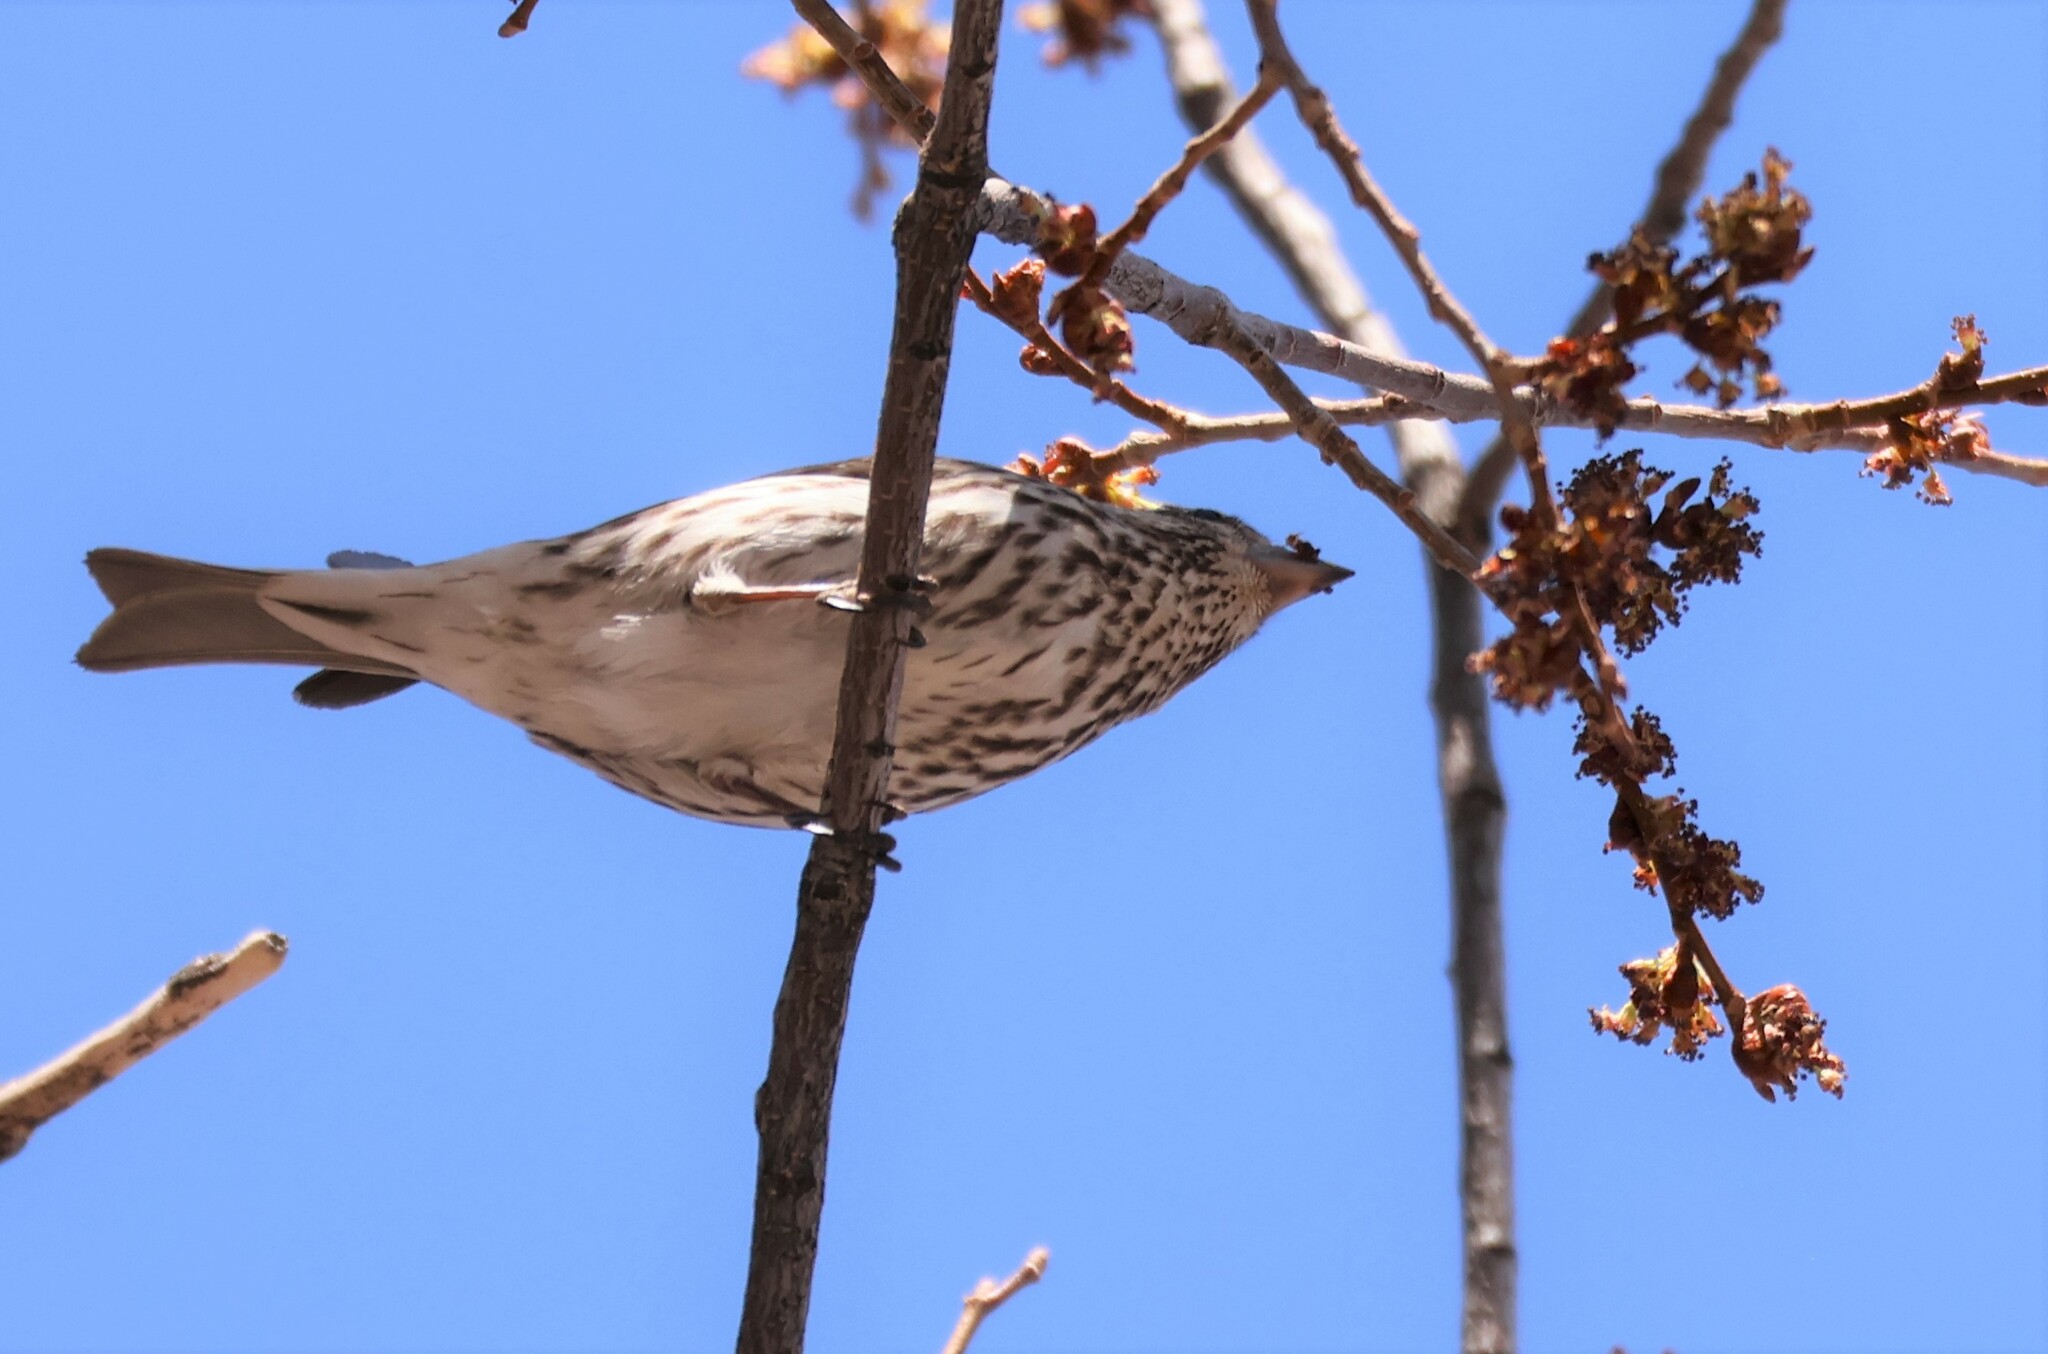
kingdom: Animalia
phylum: Chordata
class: Aves
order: Passeriformes
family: Fringillidae
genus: Haemorhous
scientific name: Haemorhous cassinii
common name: Cassin's finch
